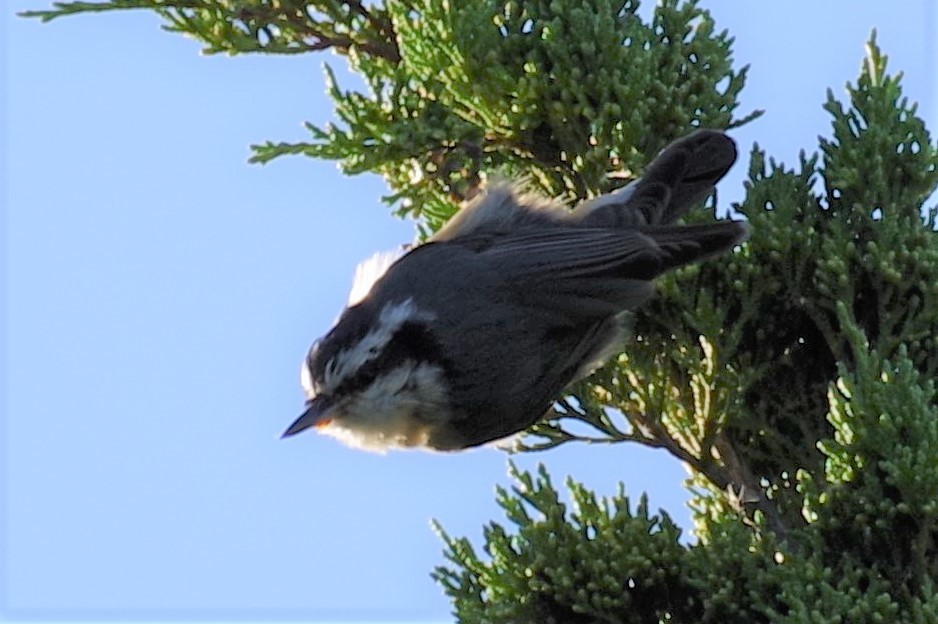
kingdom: Animalia
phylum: Chordata
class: Aves
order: Passeriformes
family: Sittidae
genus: Sitta
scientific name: Sitta canadensis
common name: Red-breasted nuthatch
